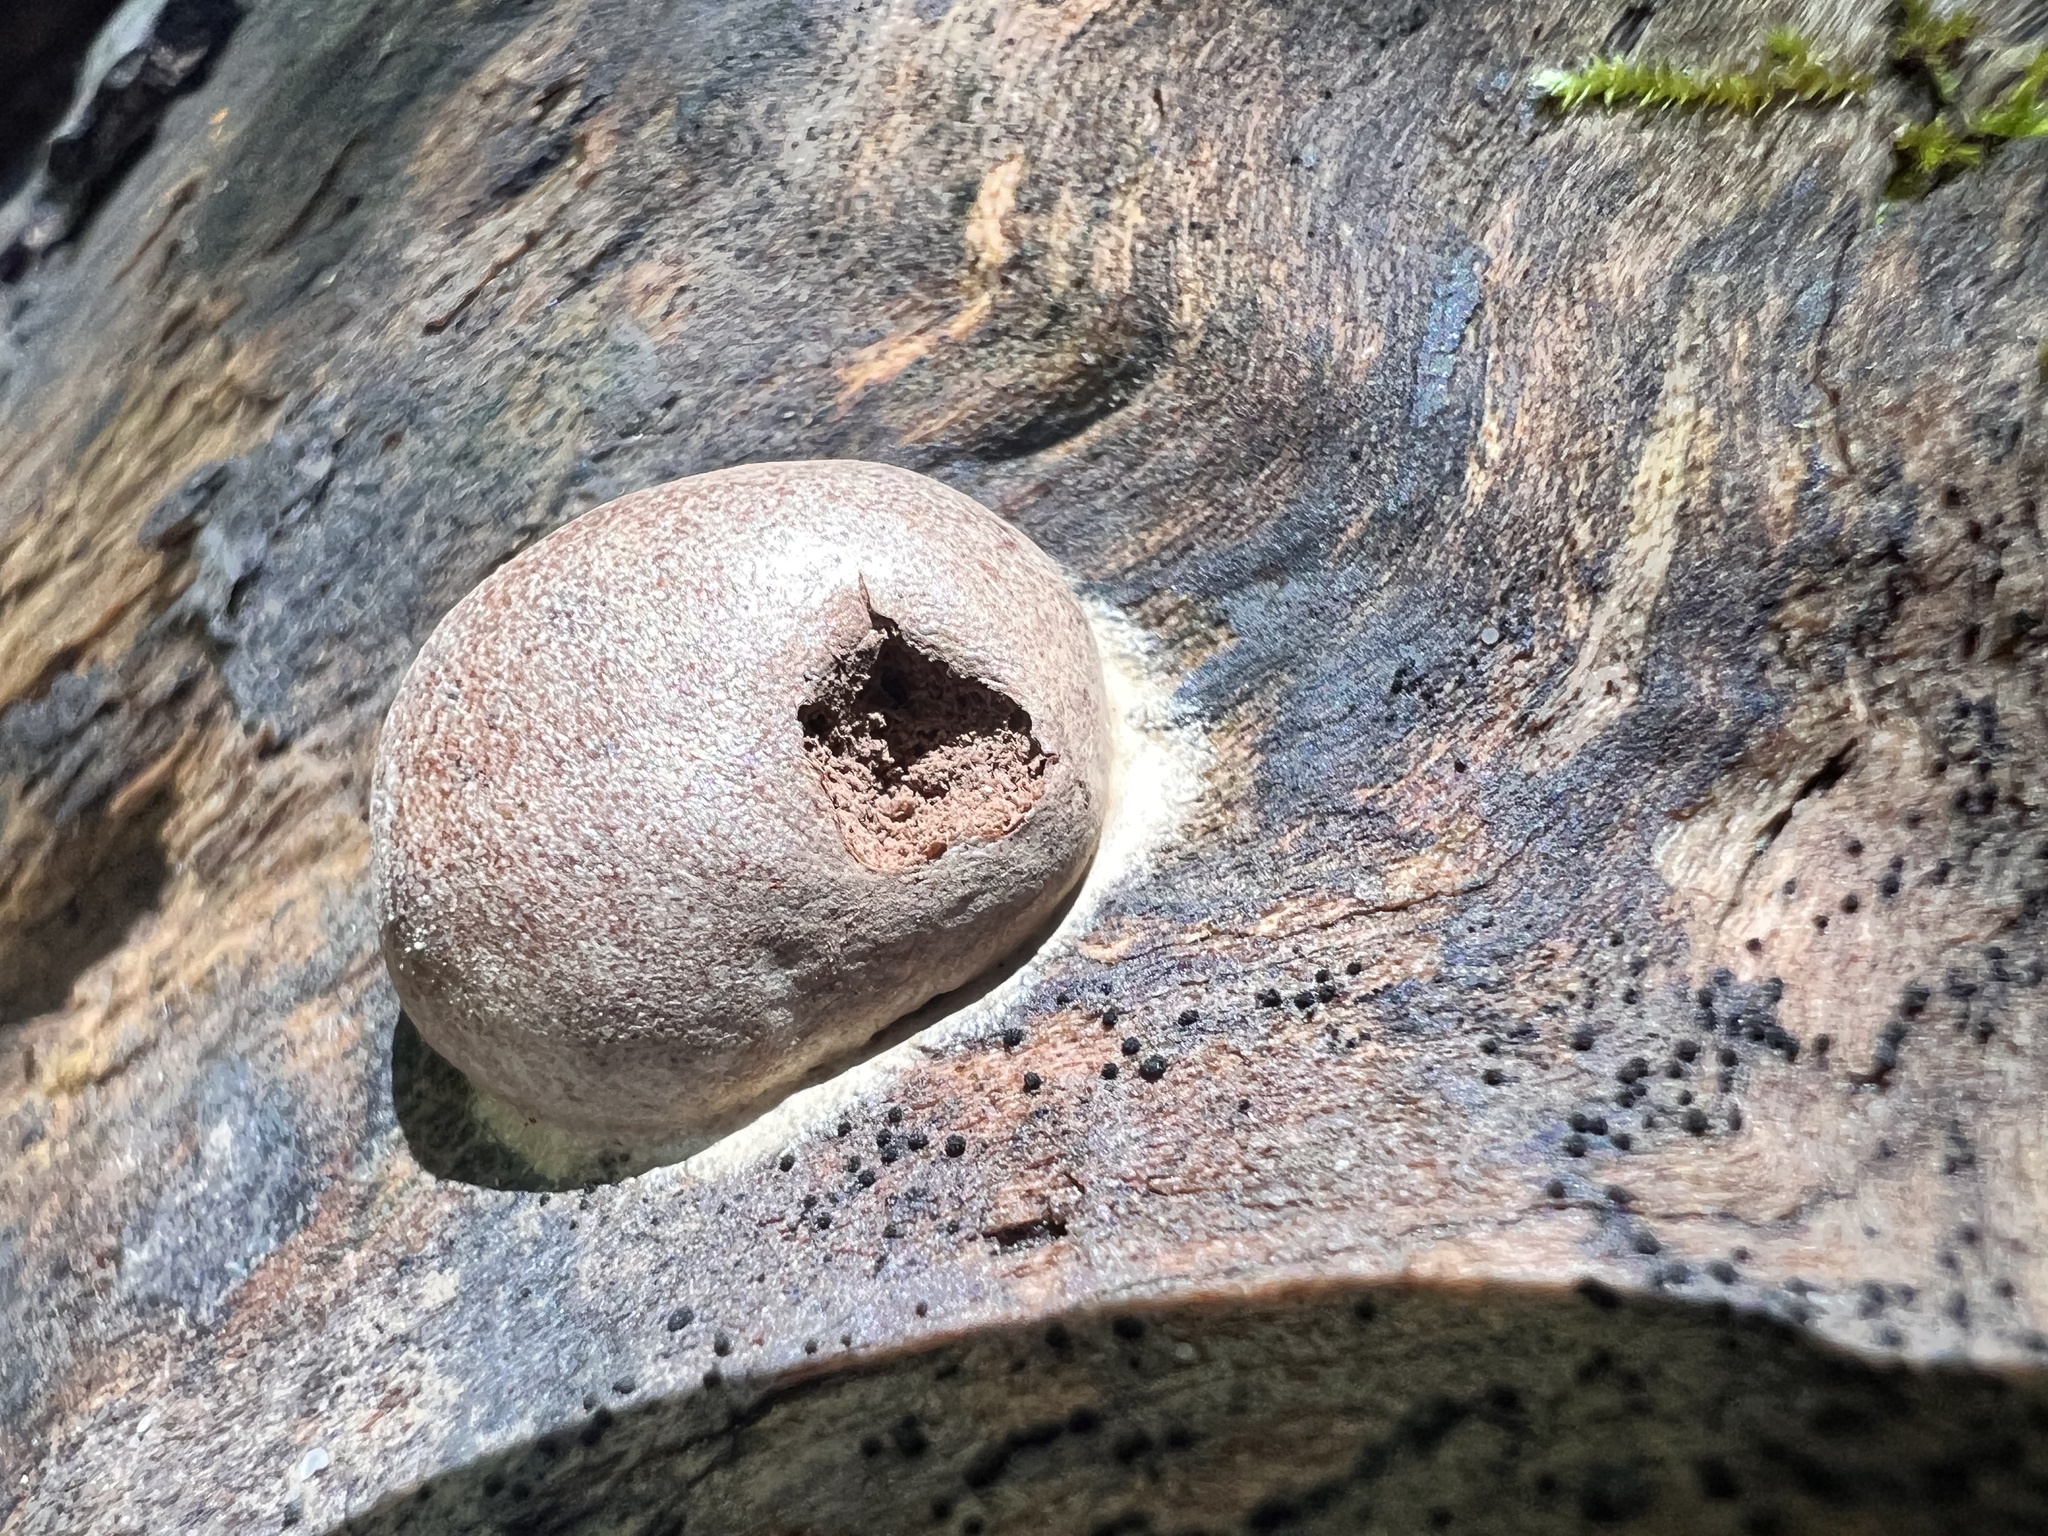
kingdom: Protozoa
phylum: Mycetozoa
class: Myxomycetes
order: Cribrariales
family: Tubiferaceae
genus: Reticularia
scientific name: Reticularia splendens
